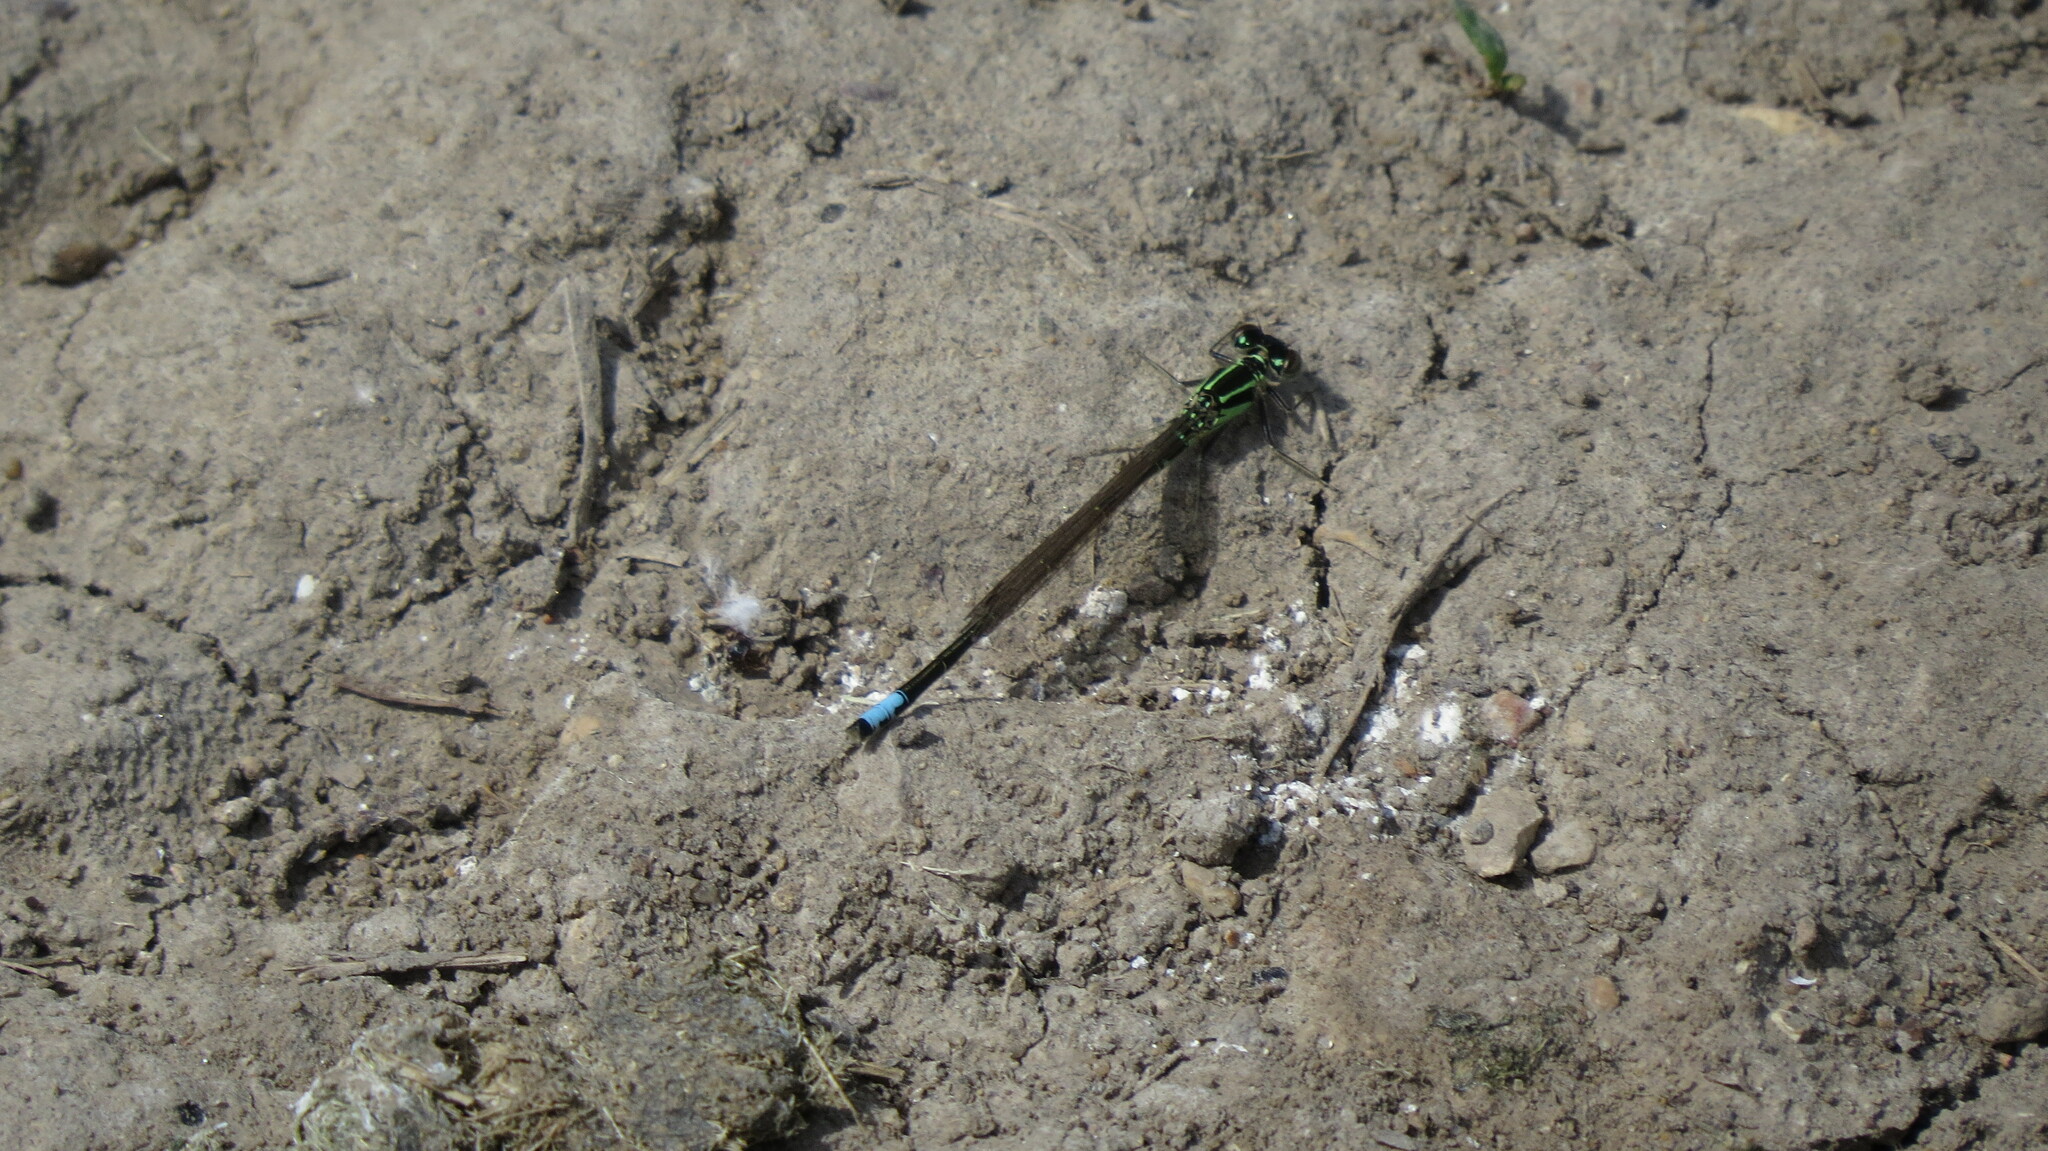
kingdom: Animalia
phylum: Arthropoda
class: Insecta
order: Odonata
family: Coenagrionidae
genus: Ischnura
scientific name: Ischnura verticalis
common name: Eastern forktail
